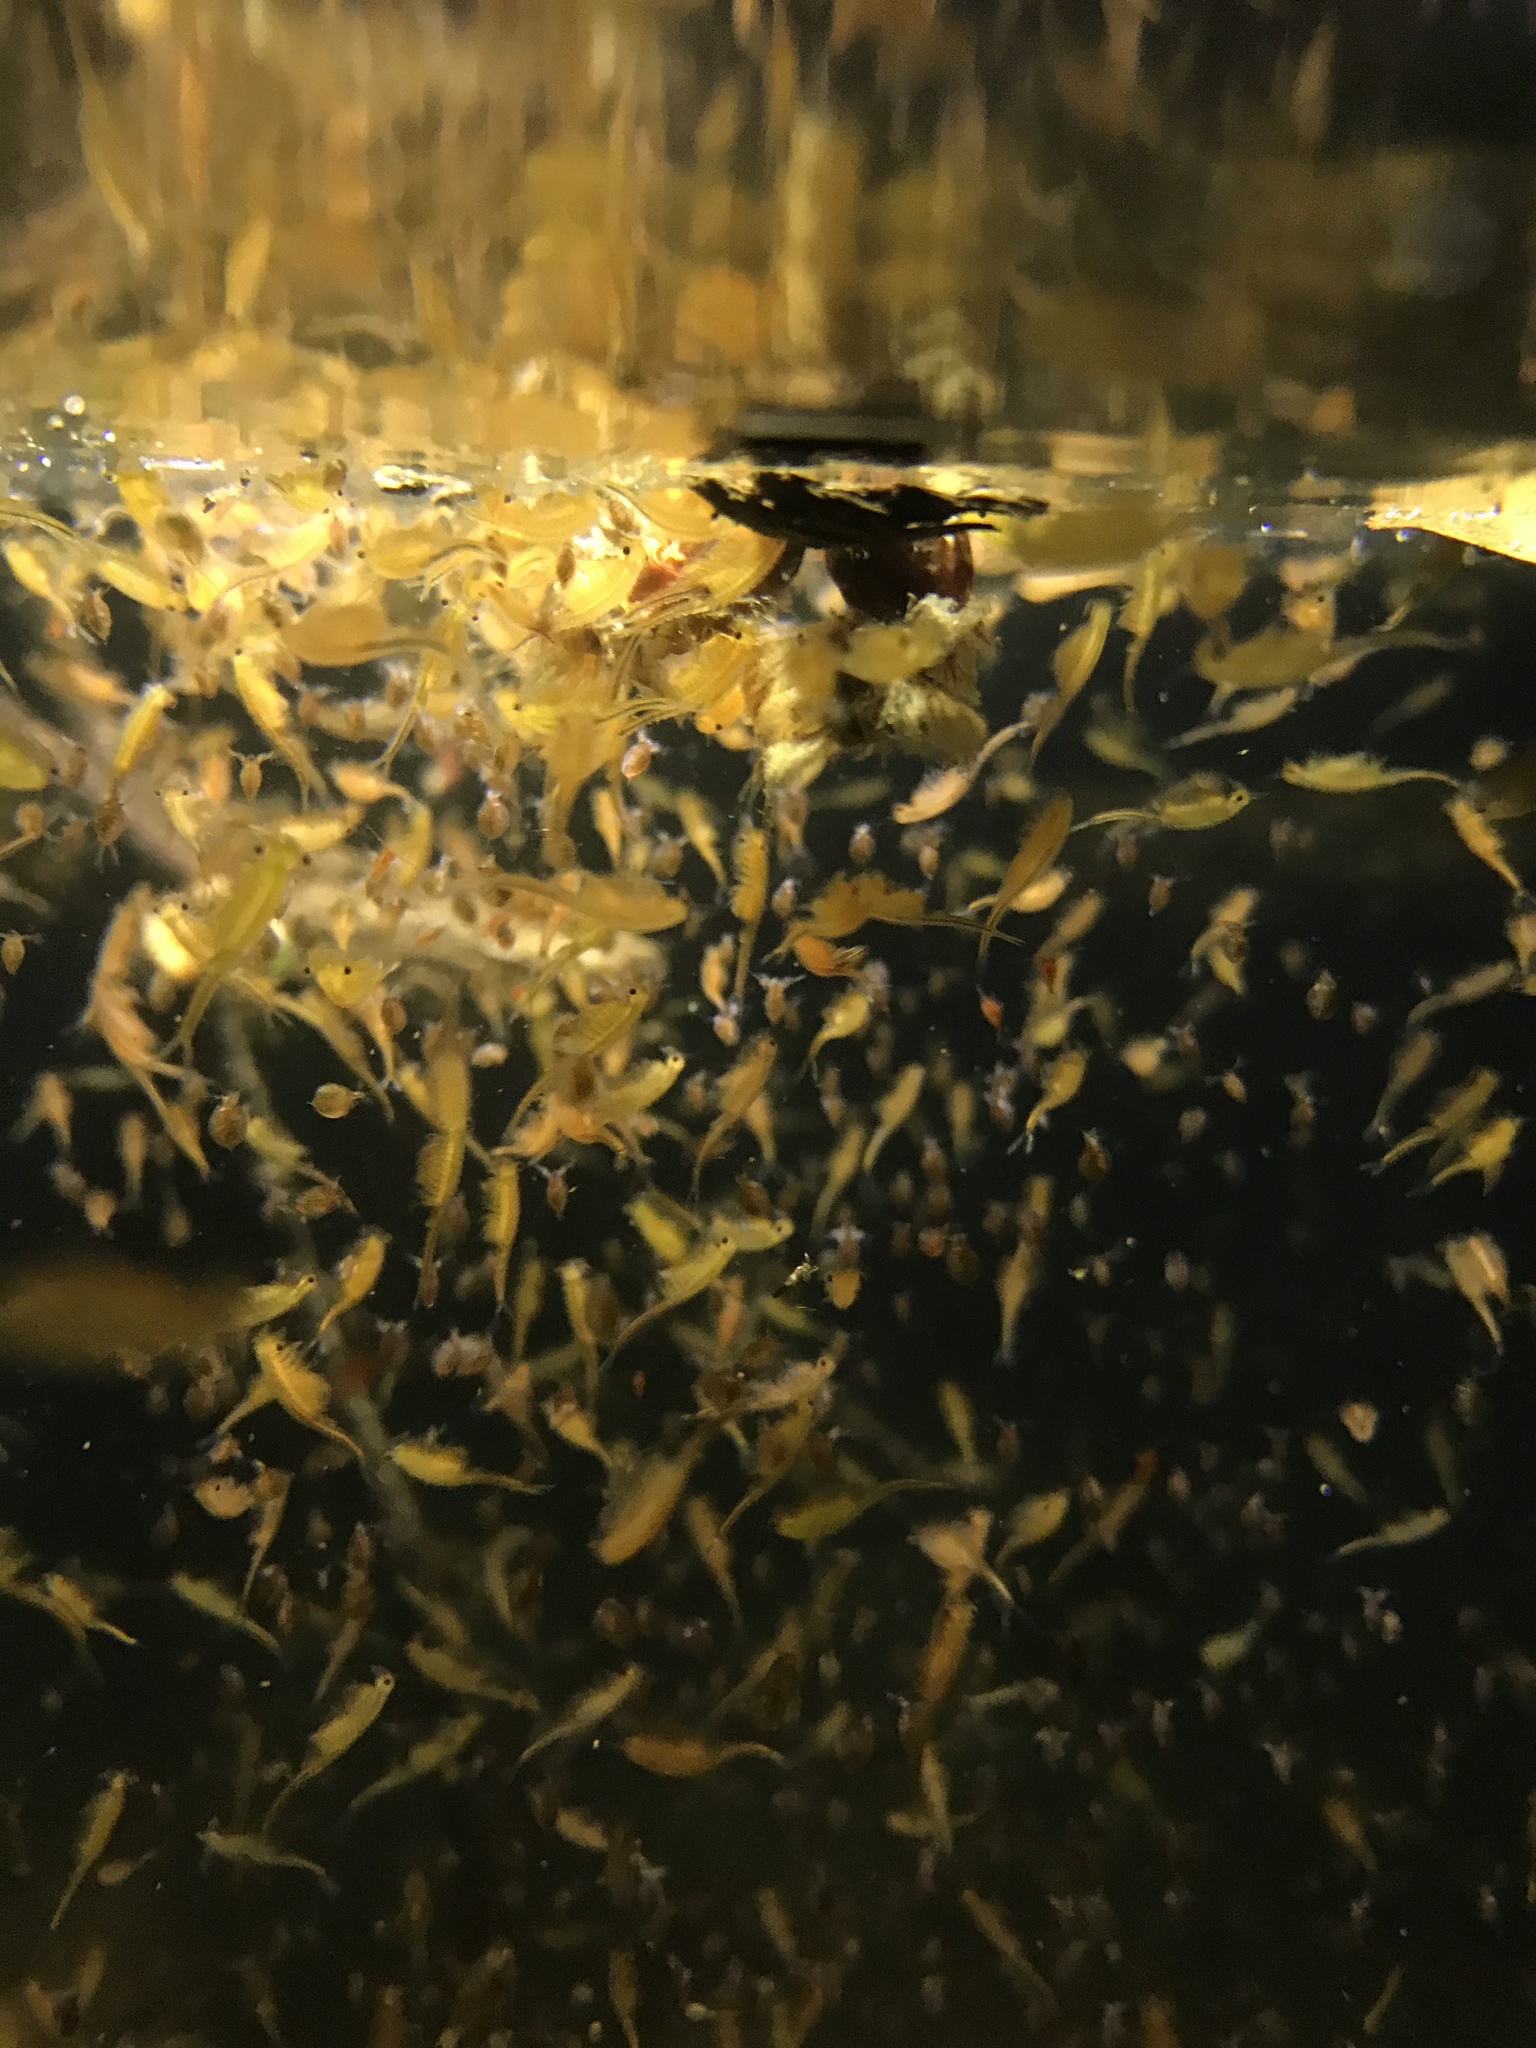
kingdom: Animalia
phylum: Arthropoda
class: Branchiopoda
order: Anostraca
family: Chirocephalidae
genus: Chirocephalus
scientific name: Chirocephalus shadini
